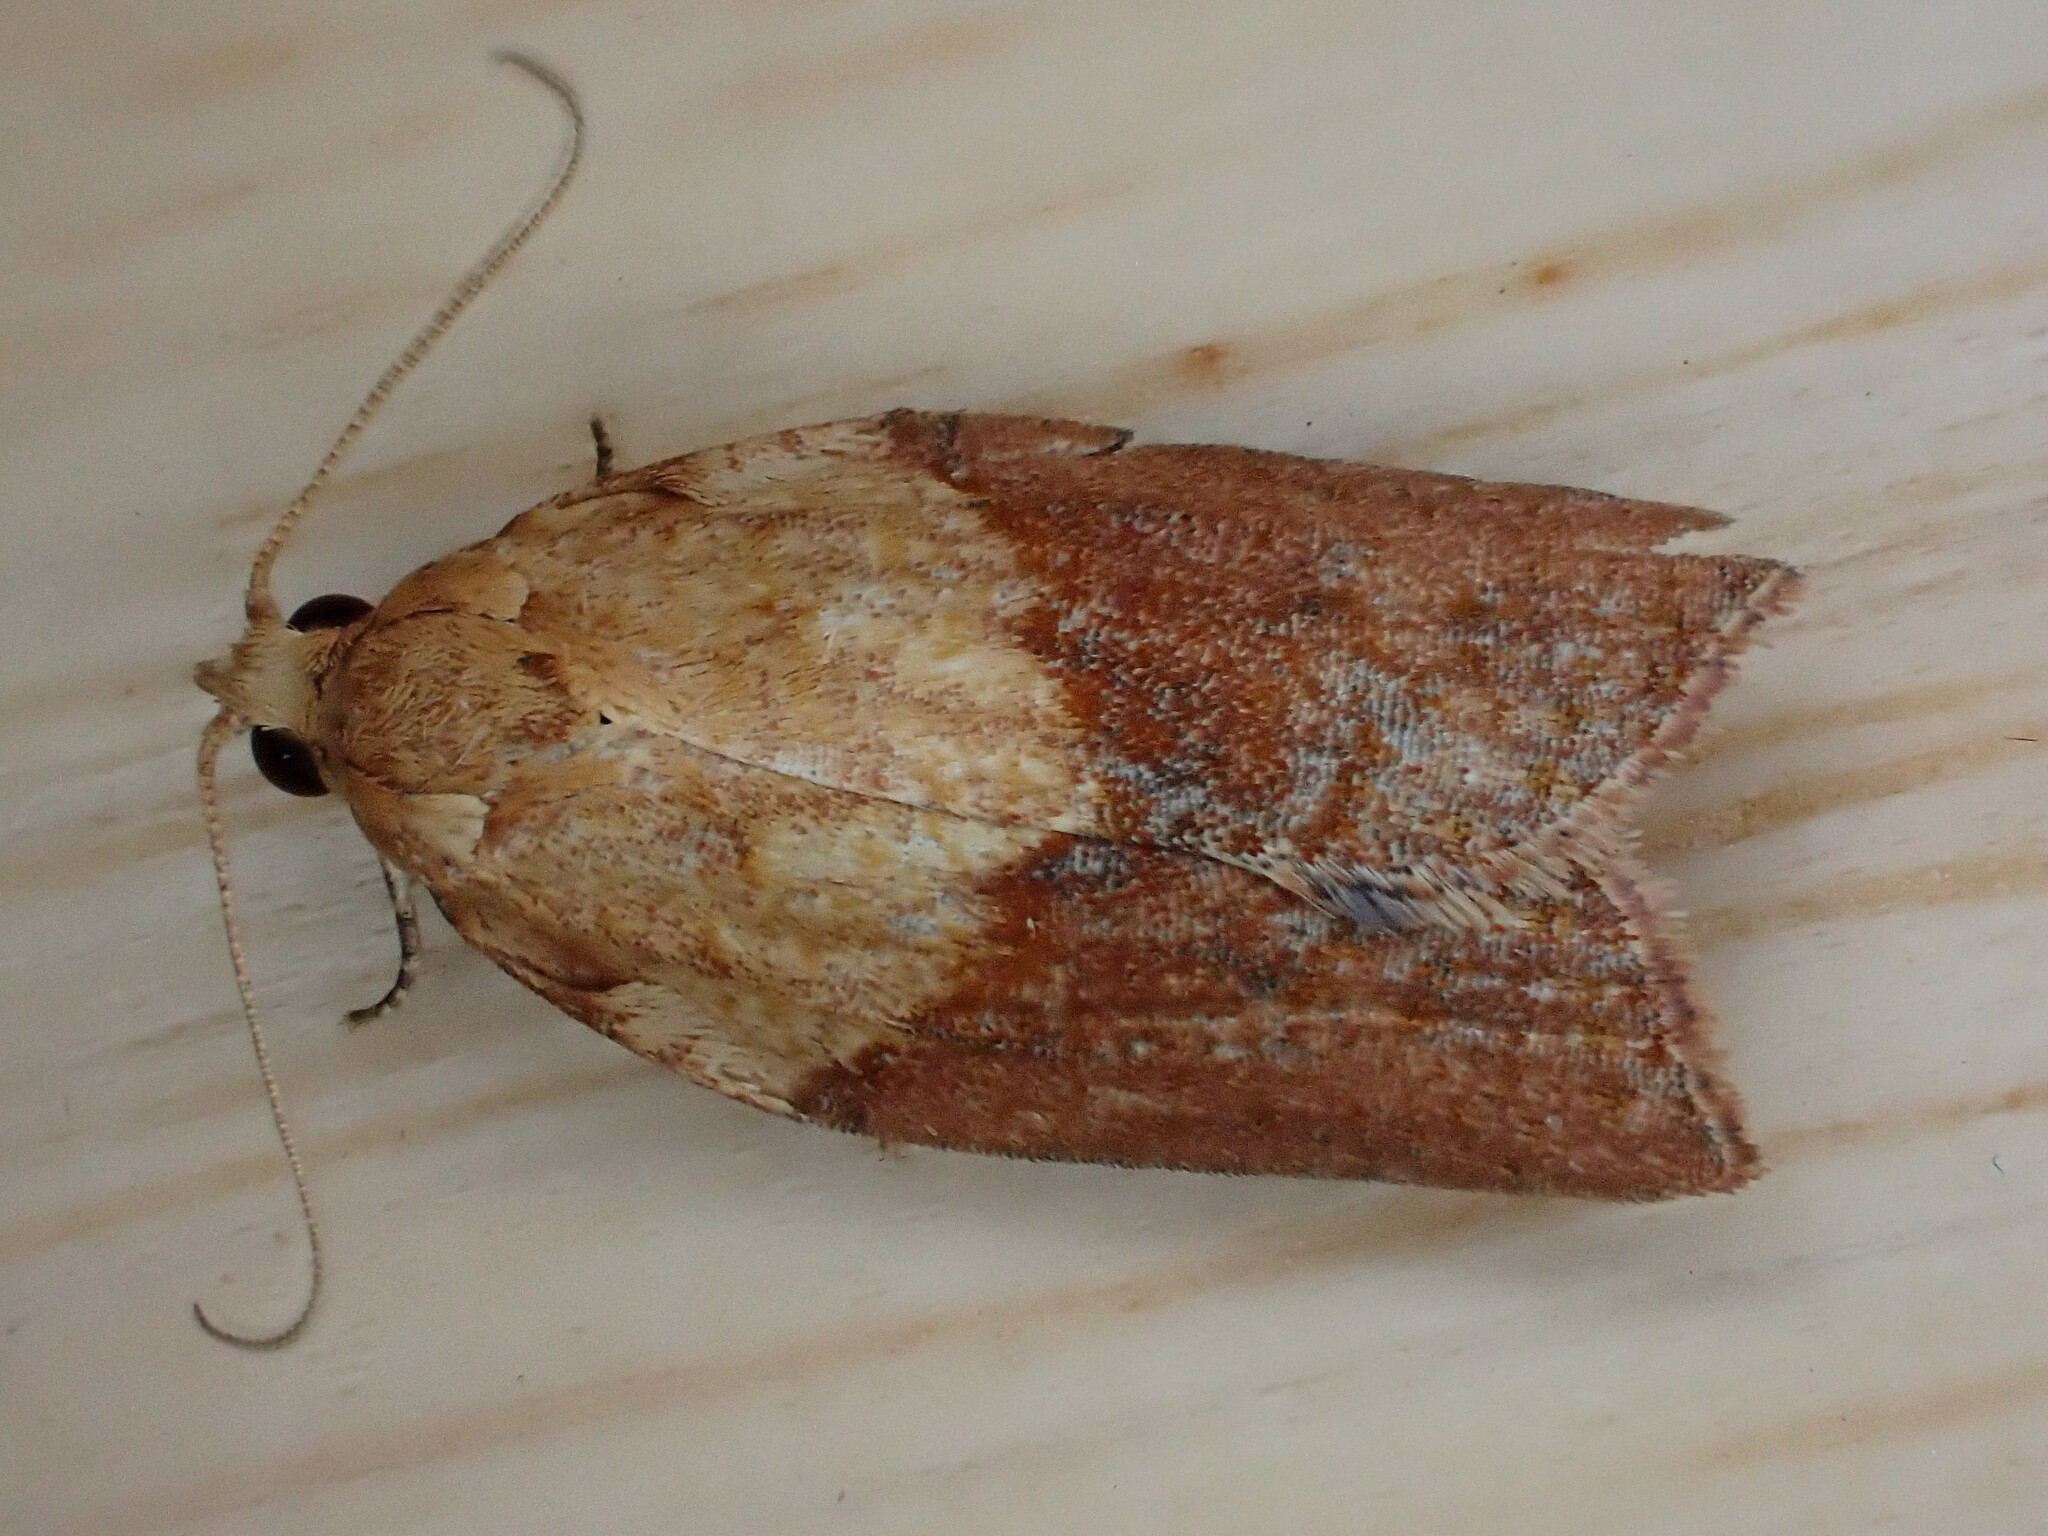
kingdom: Animalia
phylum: Arthropoda
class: Insecta
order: Lepidoptera
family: Tortricidae
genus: Epiphyas
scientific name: Epiphyas postvittana
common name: Light brown apple moth
